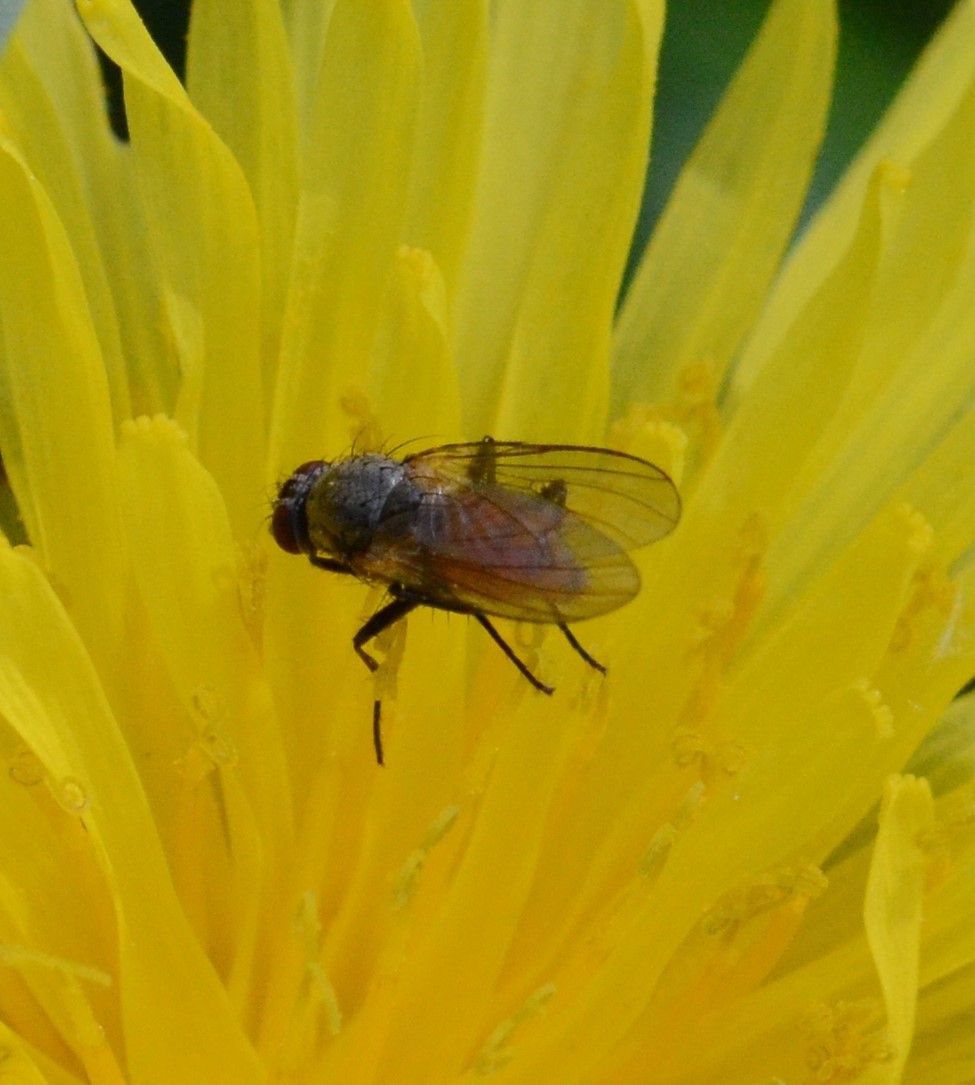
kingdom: Animalia
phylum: Arthropoda
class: Insecta
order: Diptera
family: Muscidae
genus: Thricops
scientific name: Thricops semicinereus
